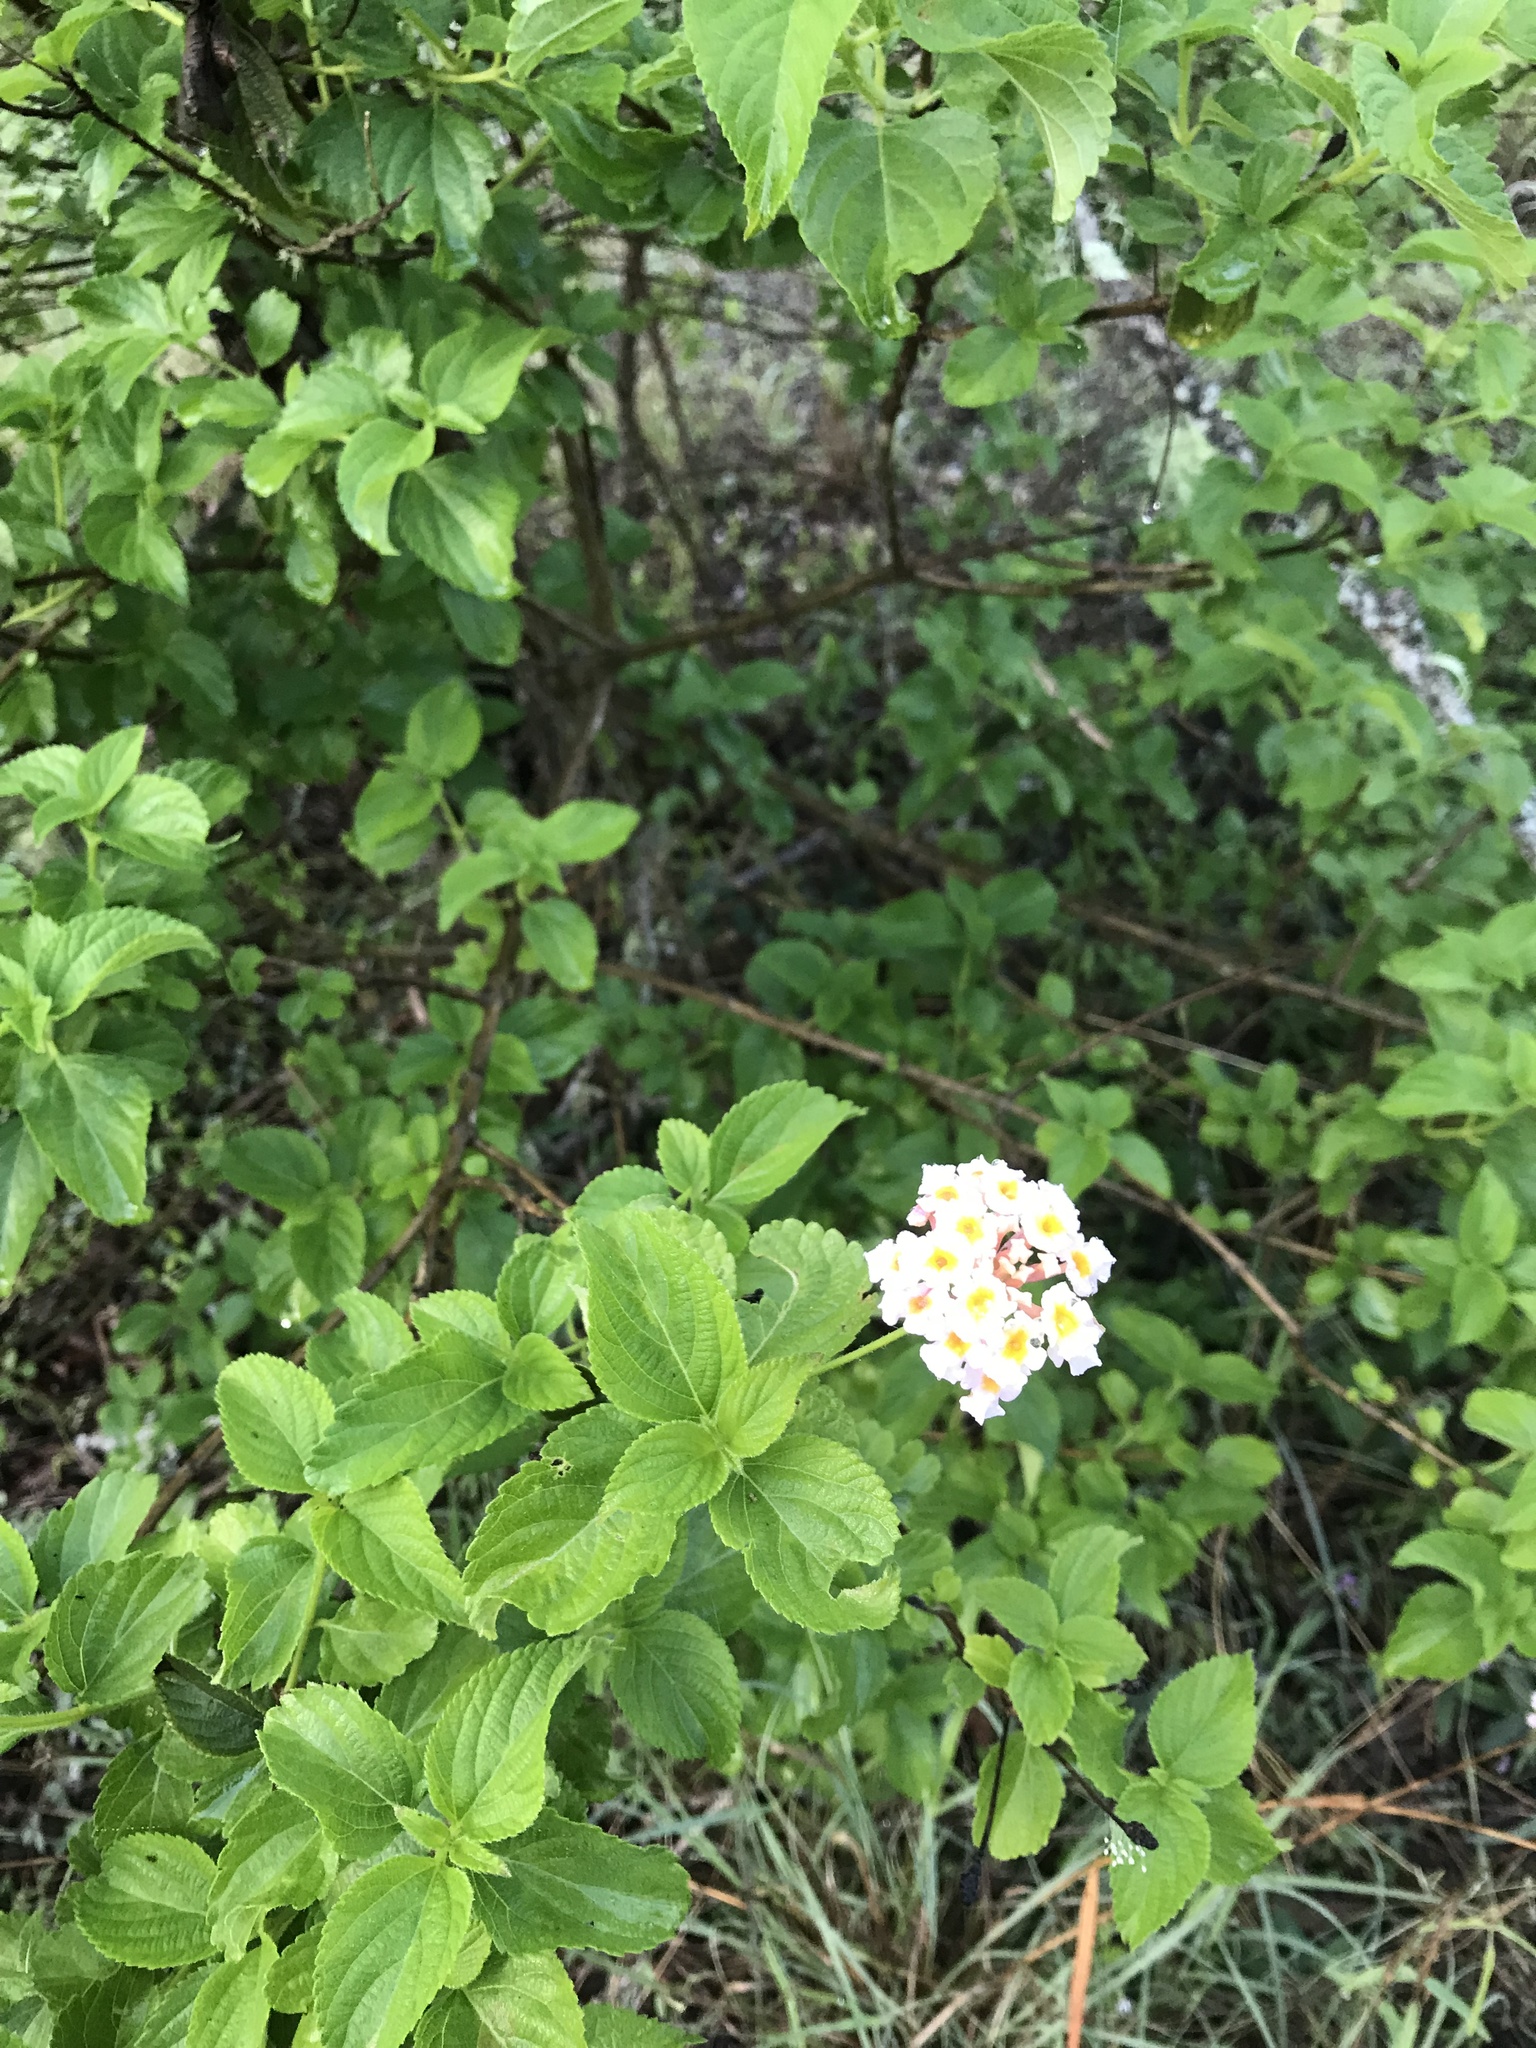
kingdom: Plantae
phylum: Tracheophyta
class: Magnoliopsida
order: Lamiales
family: Verbenaceae
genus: Lantana
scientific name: Lantana camara
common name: Lantana
